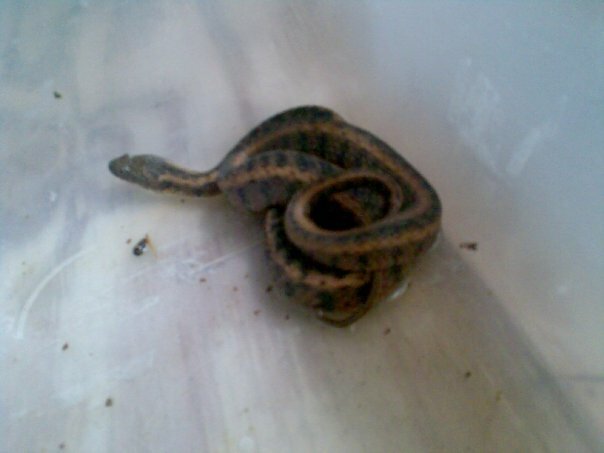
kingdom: Animalia
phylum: Chordata
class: Squamata
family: Colubridae
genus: Natrix
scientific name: Natrix maura
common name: Viperine water snake
